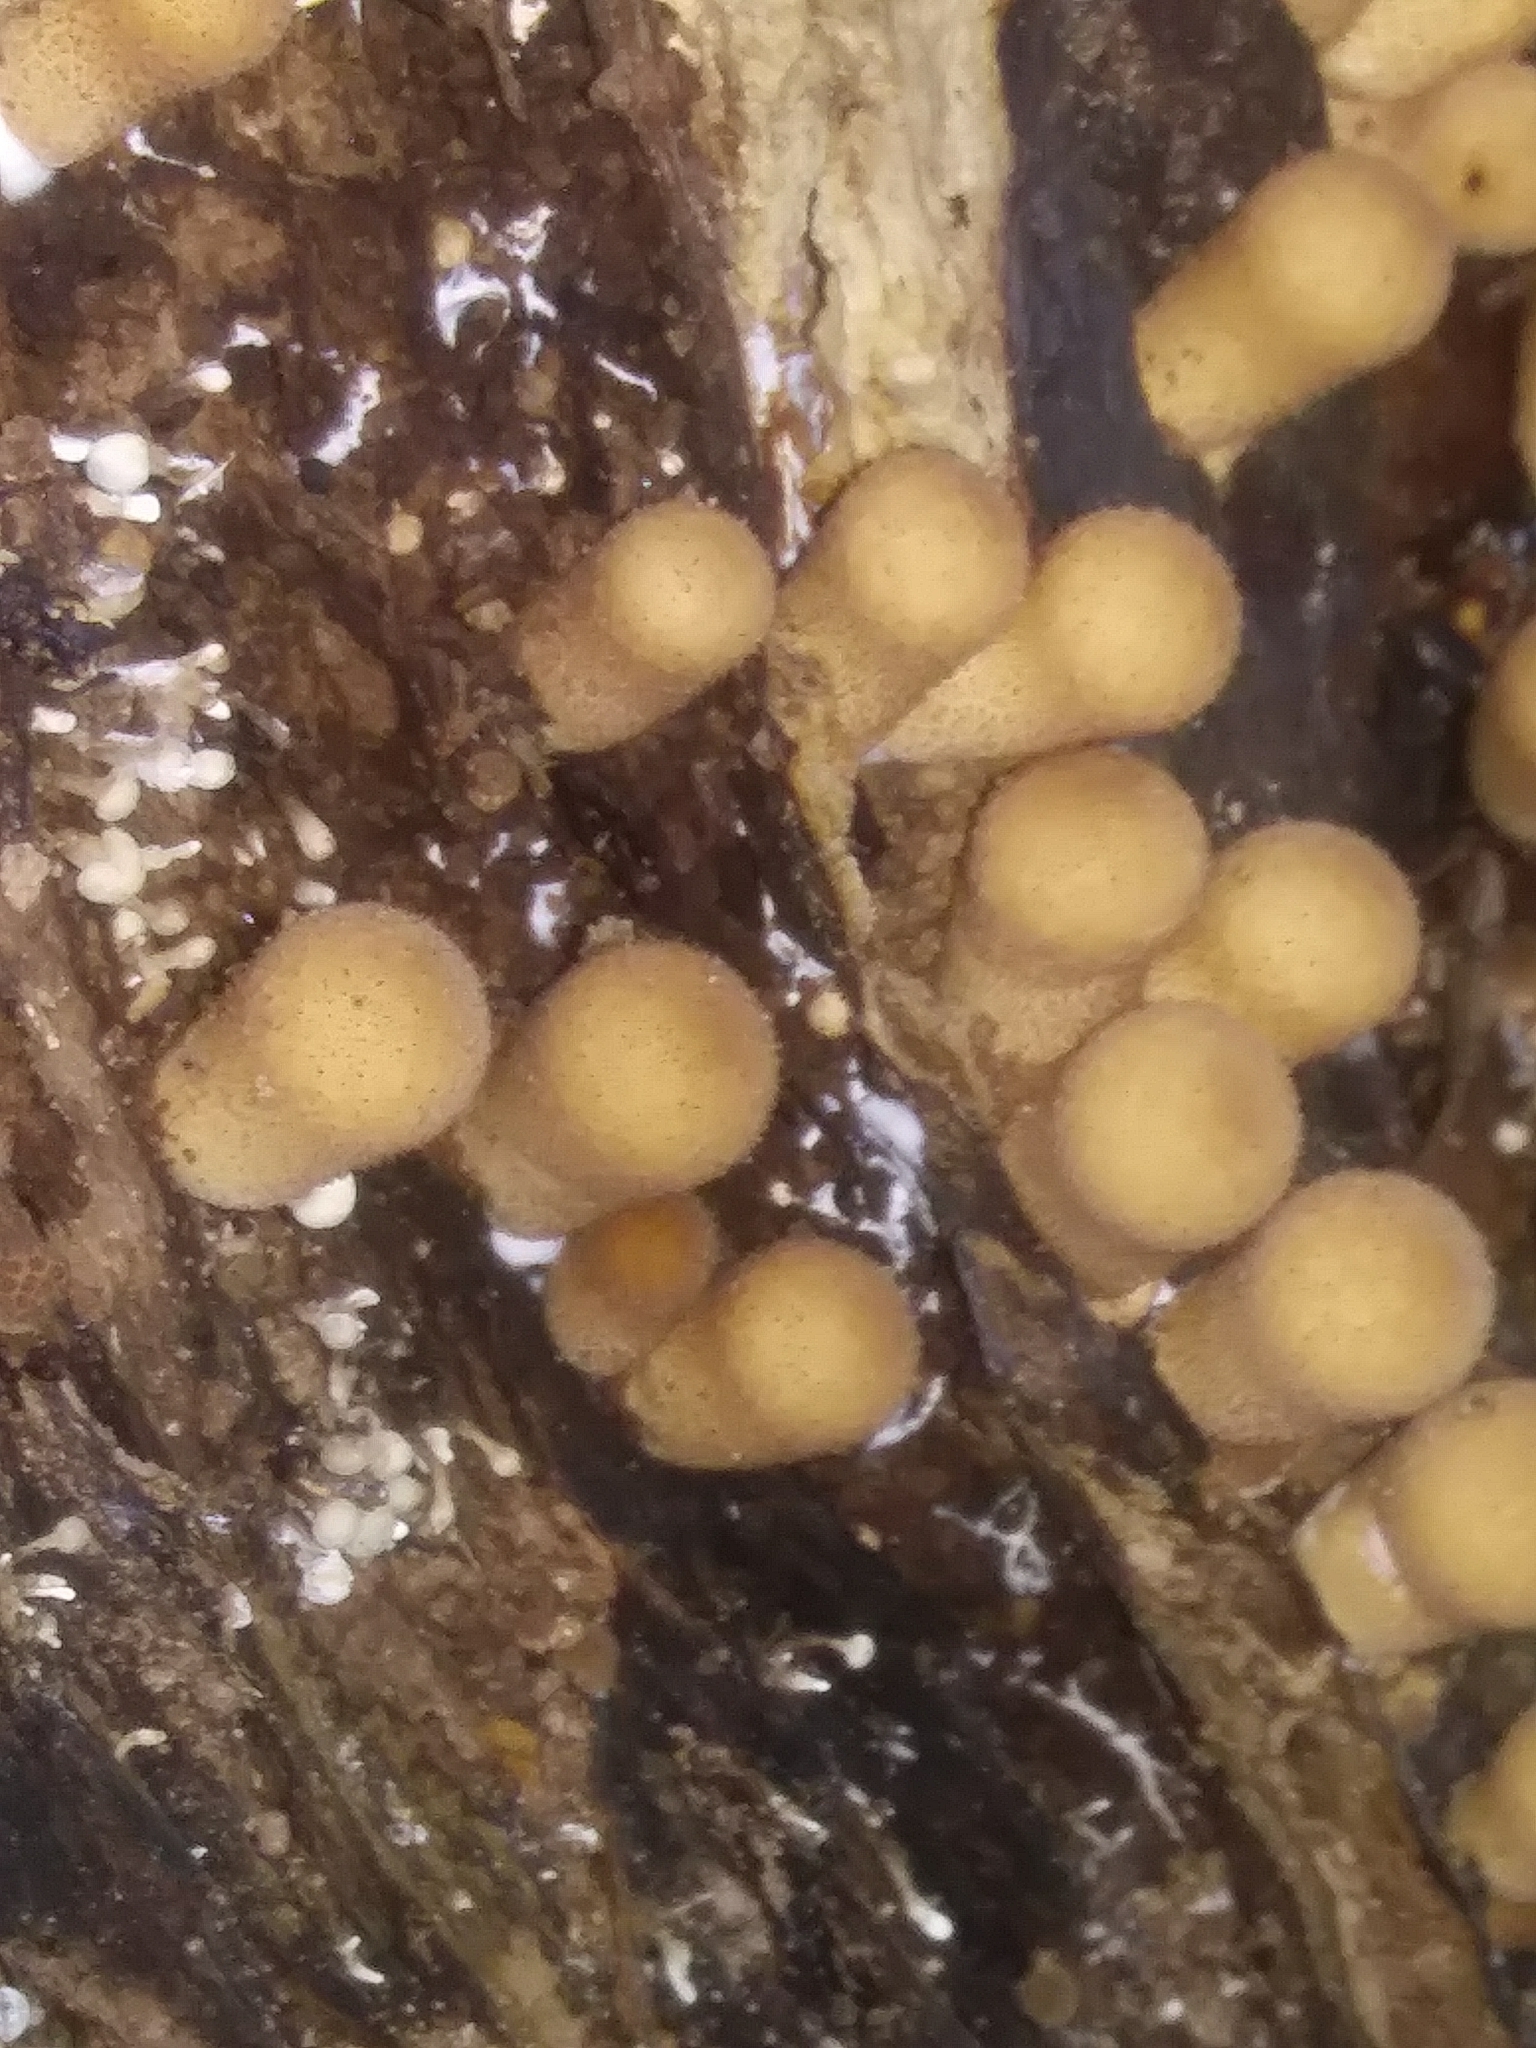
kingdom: Fungi
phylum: Basidiomycota
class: Agaricomycetes
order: Agaricales
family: Lycoperdaceae
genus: Apioperdon
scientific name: Apioperdon pyriforme
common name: Pear-shaped puffball
